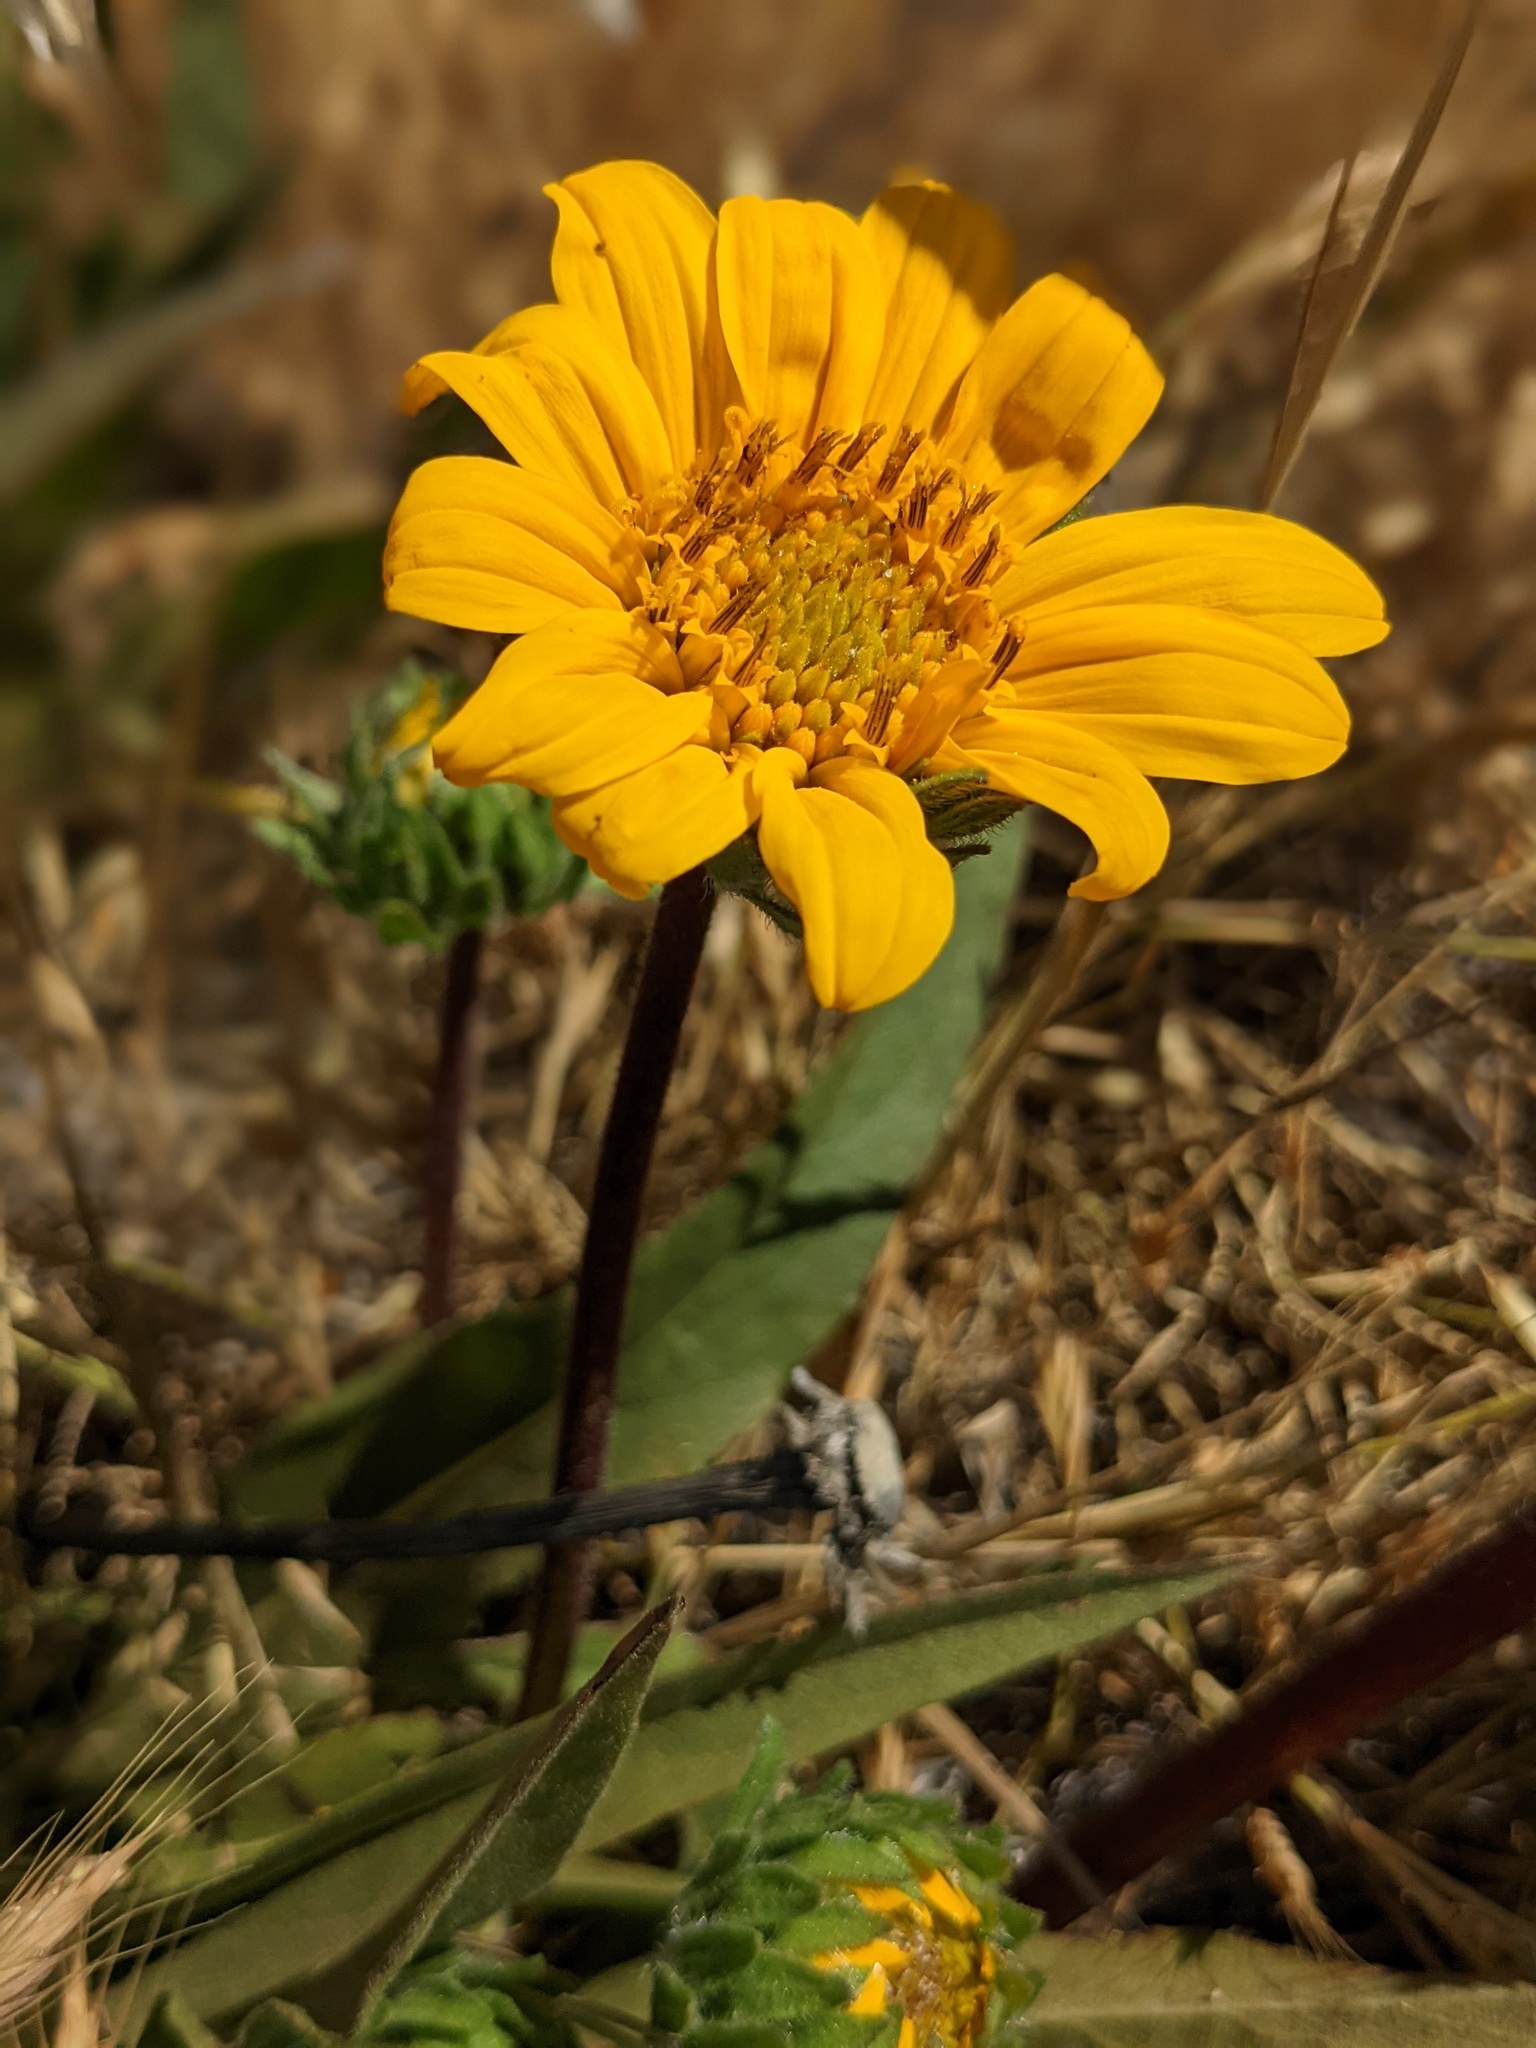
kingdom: Plantae
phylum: Tracheophyta
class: Magnoliopsida
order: Asterales
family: Asteraceae
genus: Wyethia
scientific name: Wyethia angustifolia
